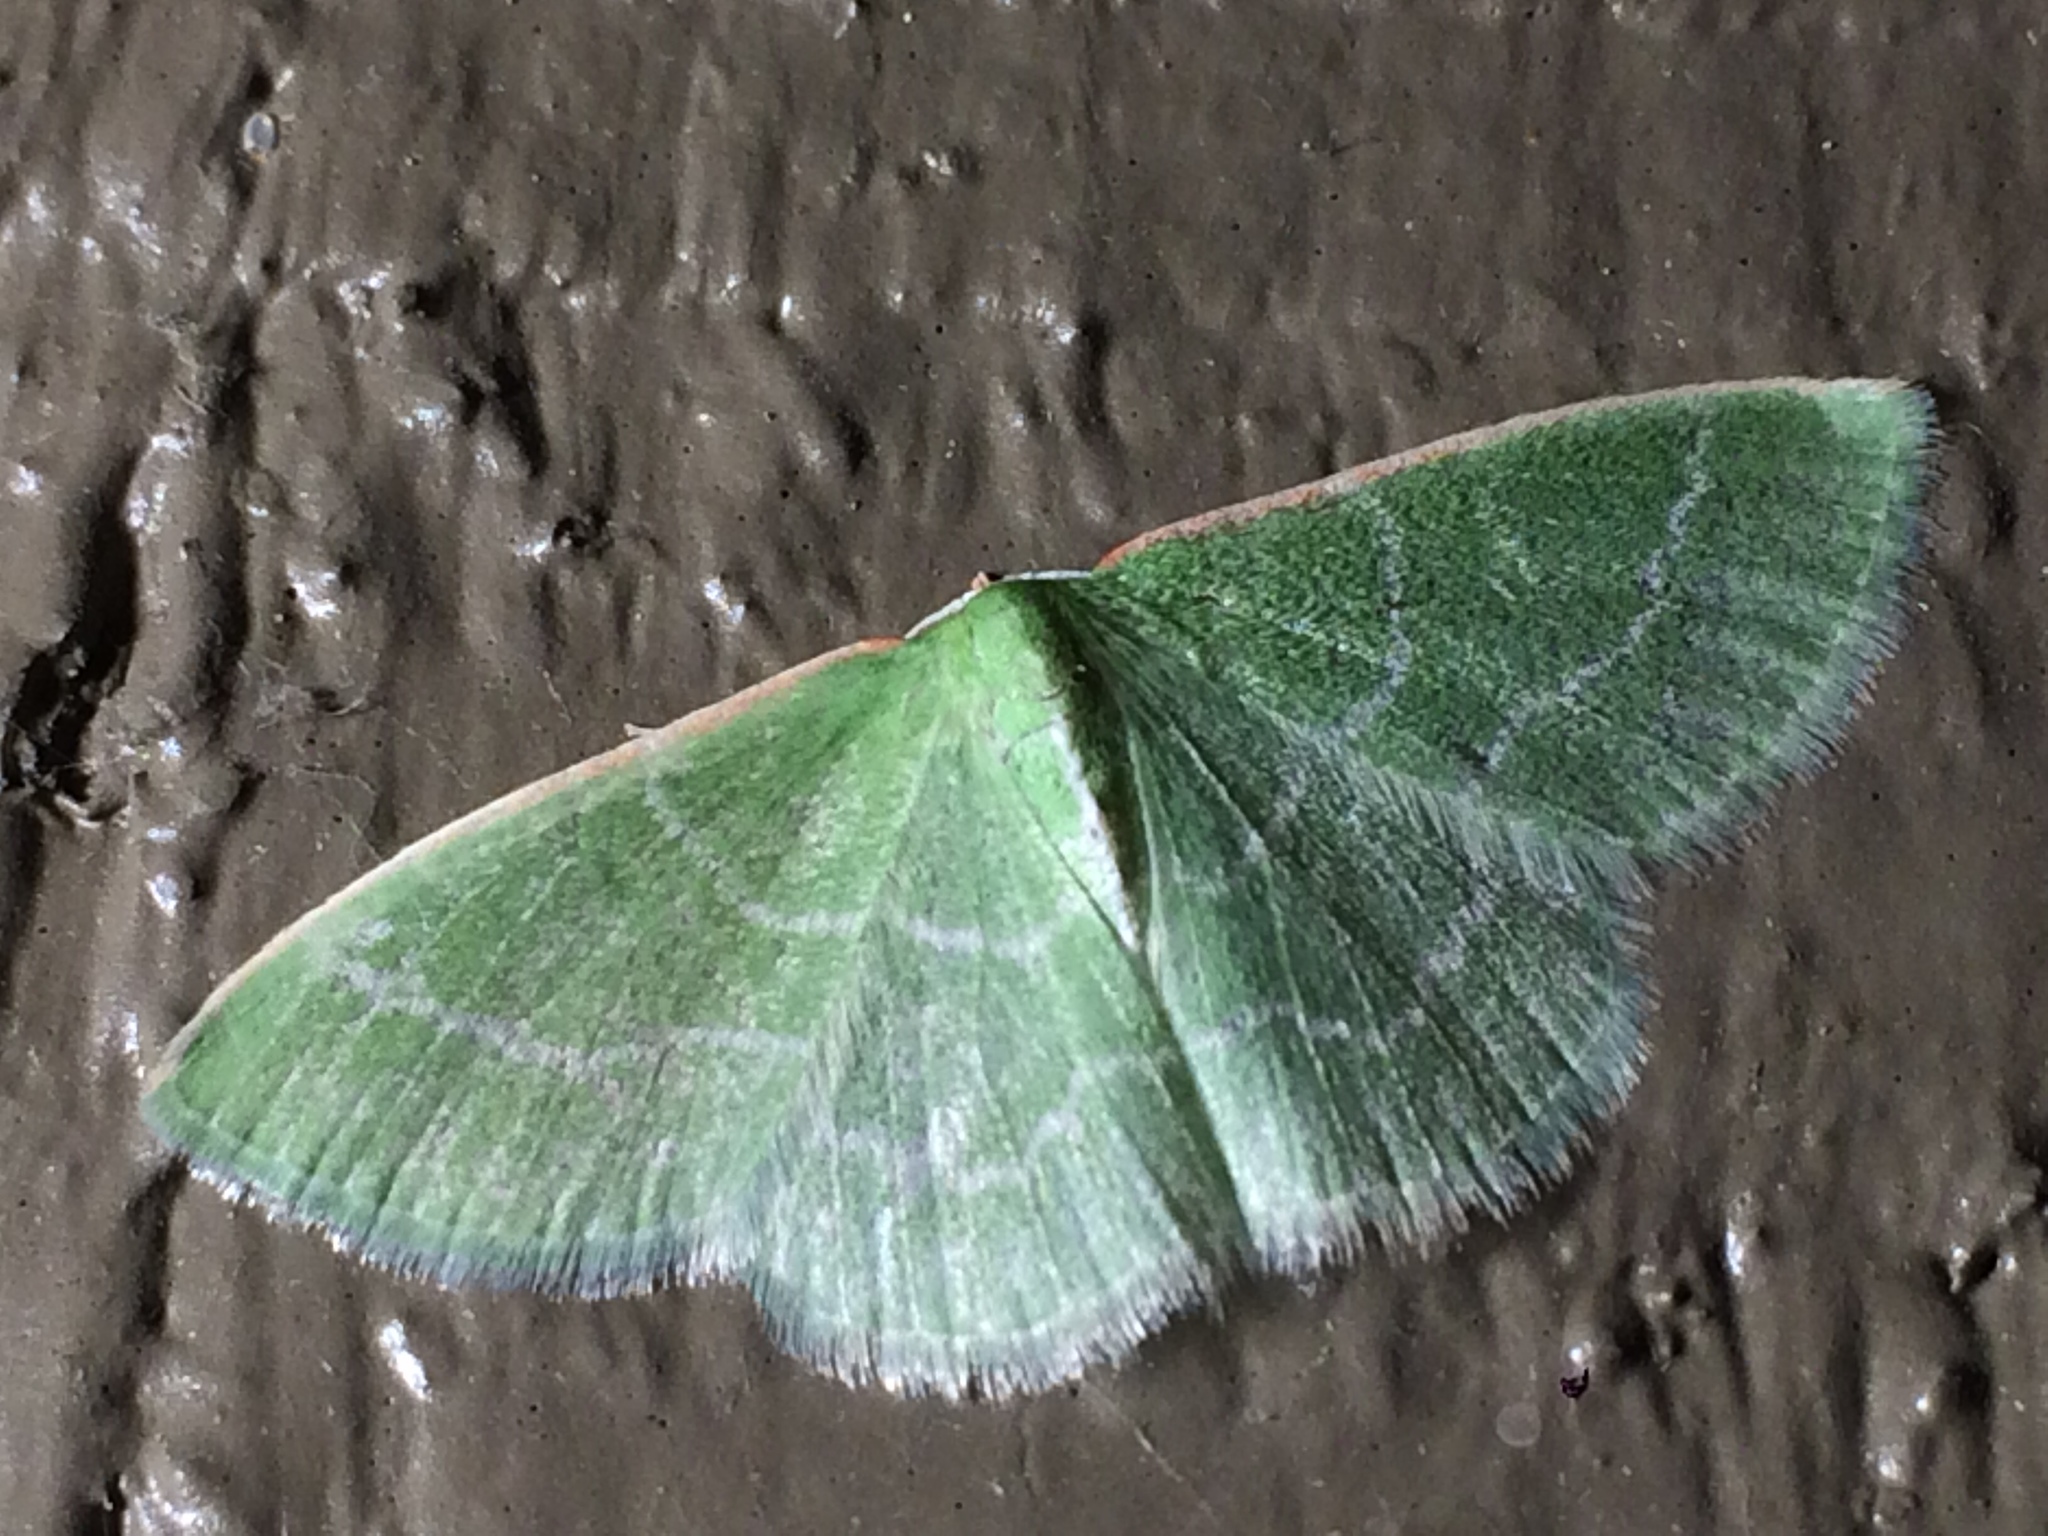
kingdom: Animalia
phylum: Arthropoda
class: Insecta
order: Lepidoptera
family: Geometridae
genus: Synchlora
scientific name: Synchlora aerata
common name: Wavy-lined emerald
